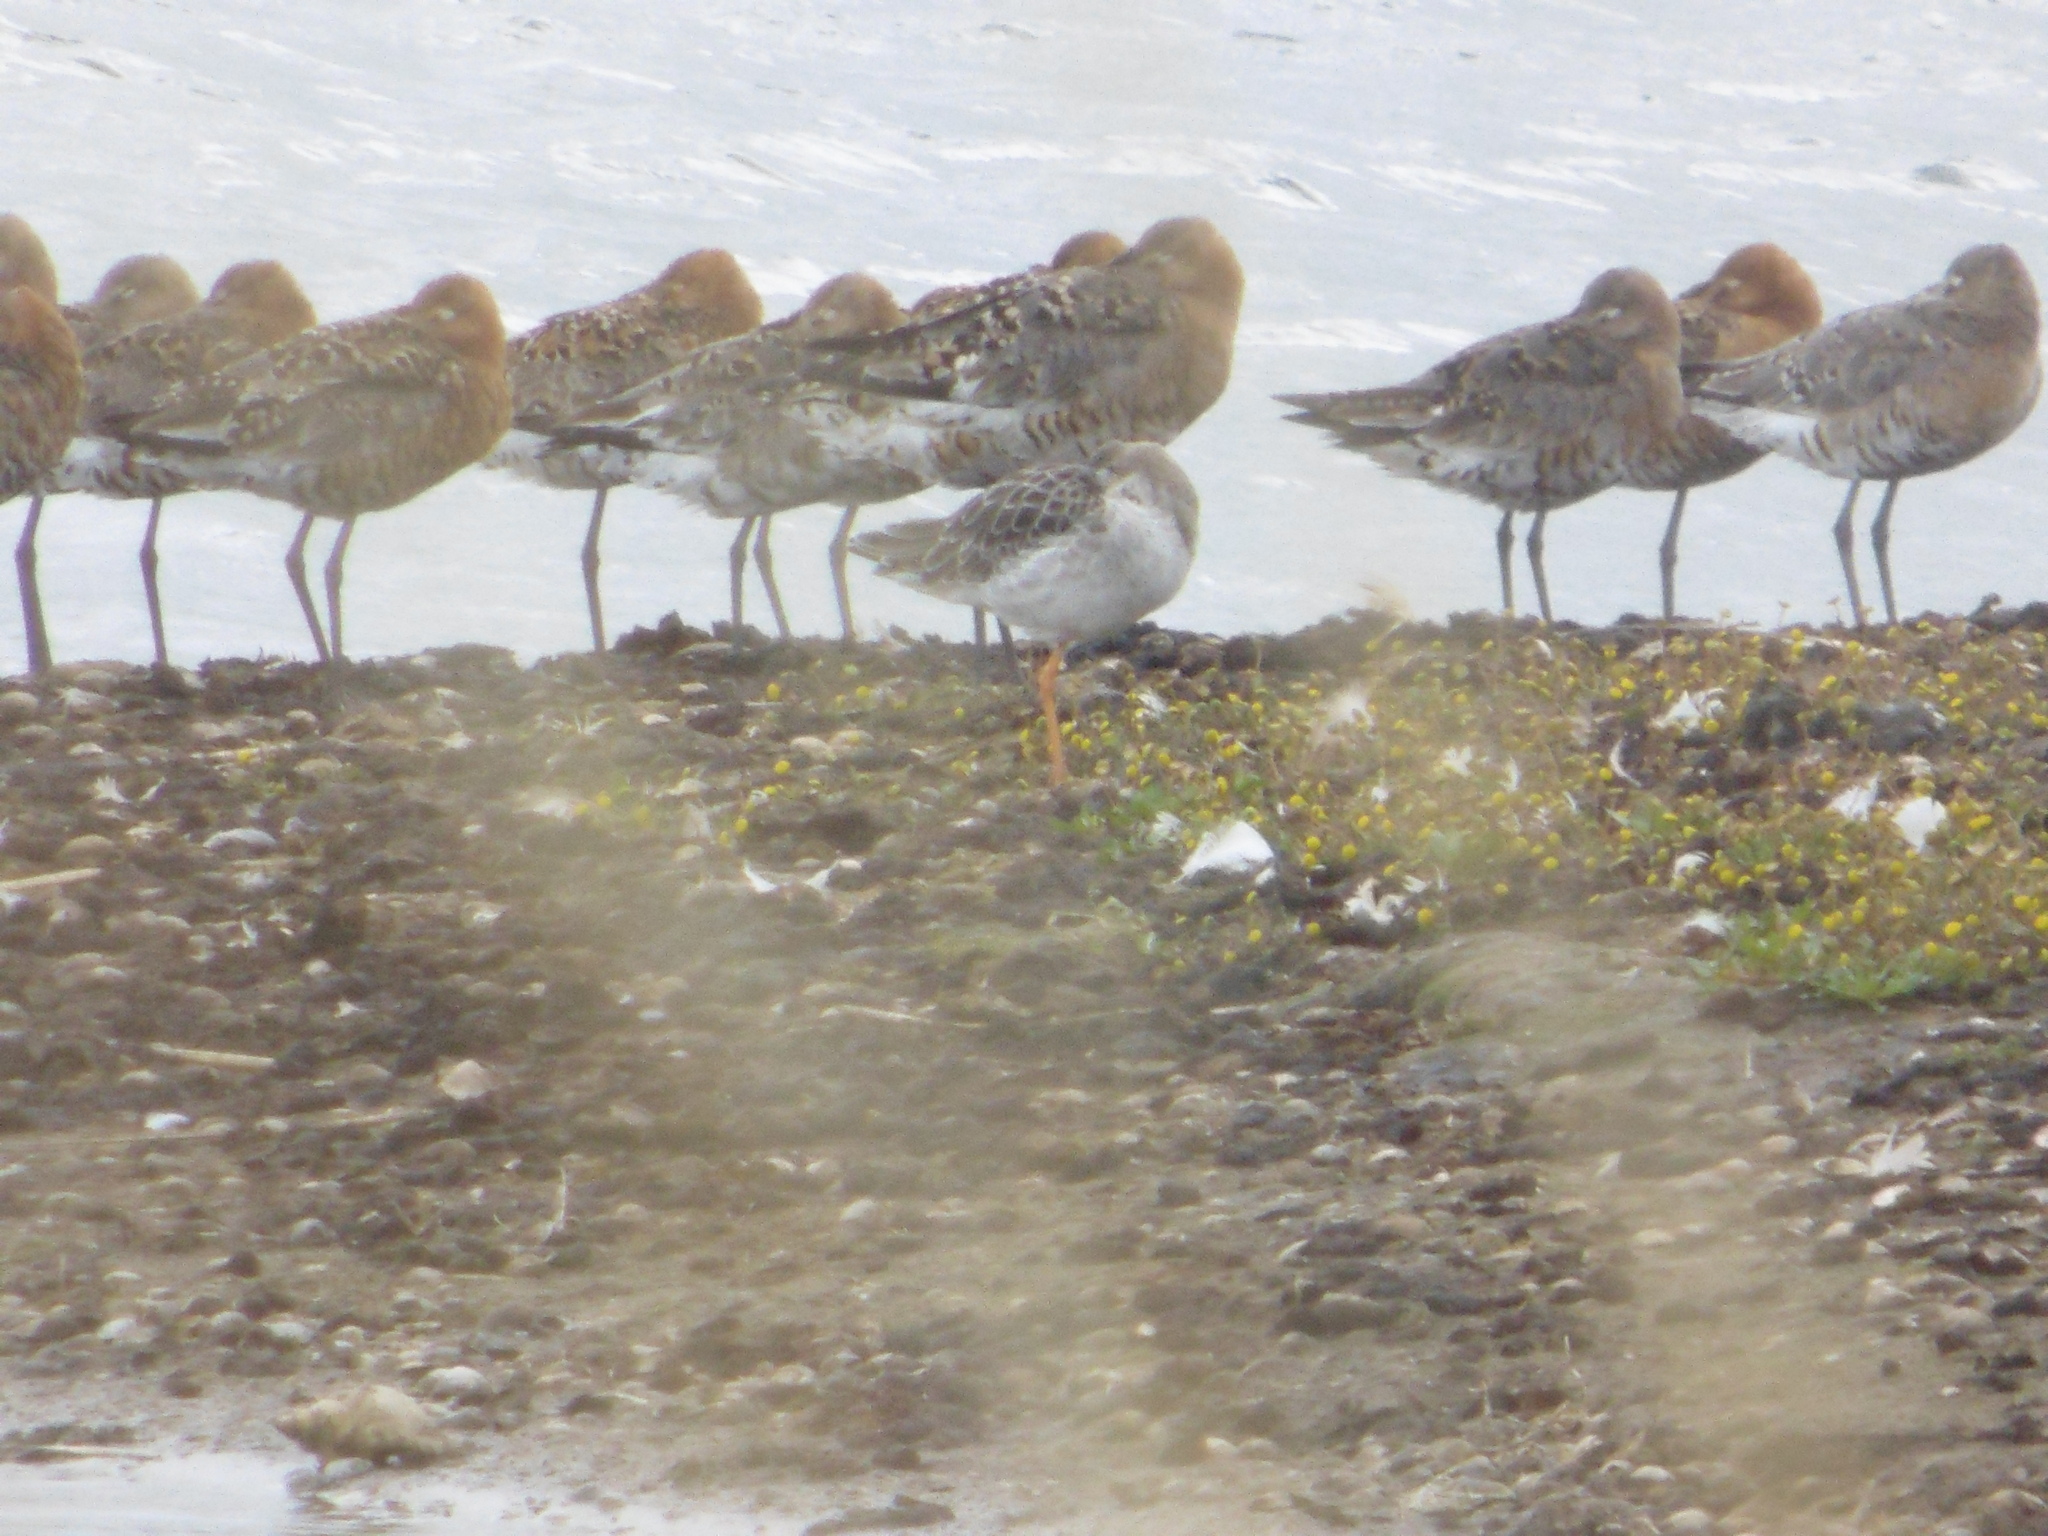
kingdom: Plantae
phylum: Tracheophyta
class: Magnoliopsida
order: Asterales
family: Asteraceae
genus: Cotula
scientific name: Cotula coronopifolia
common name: Buttonweed
